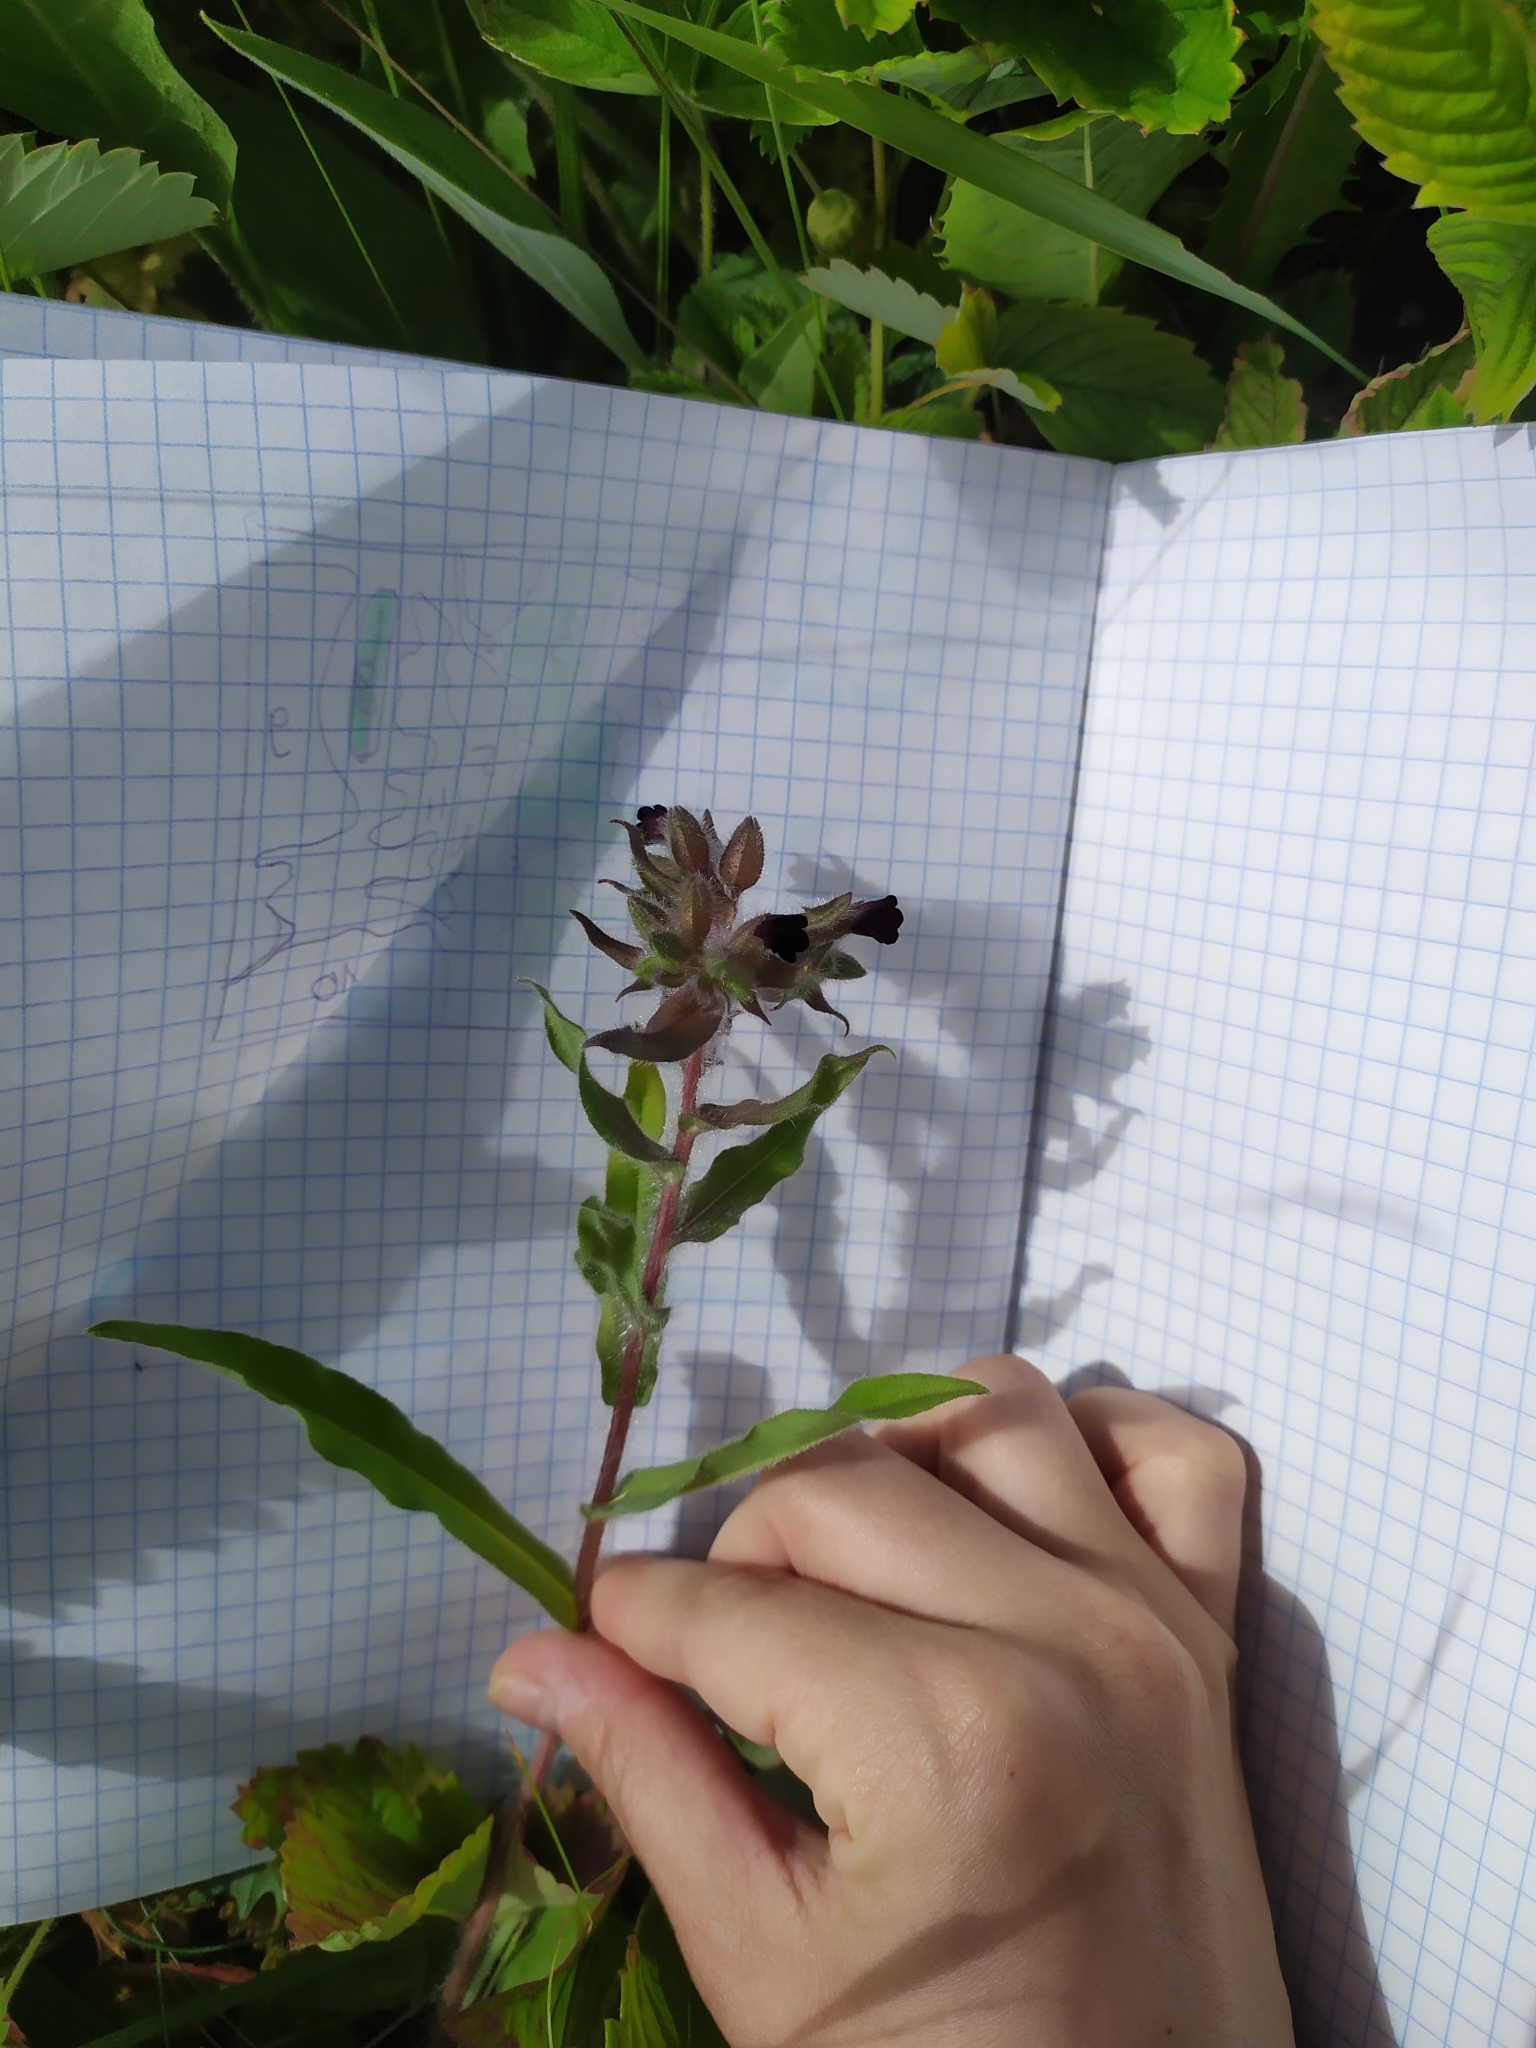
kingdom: Plantae
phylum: Tracheophyta
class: Magnoliopsida
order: Boraginales
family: Boraginaceae
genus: Nonea
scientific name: Nonea pulla
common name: Brown nonea
